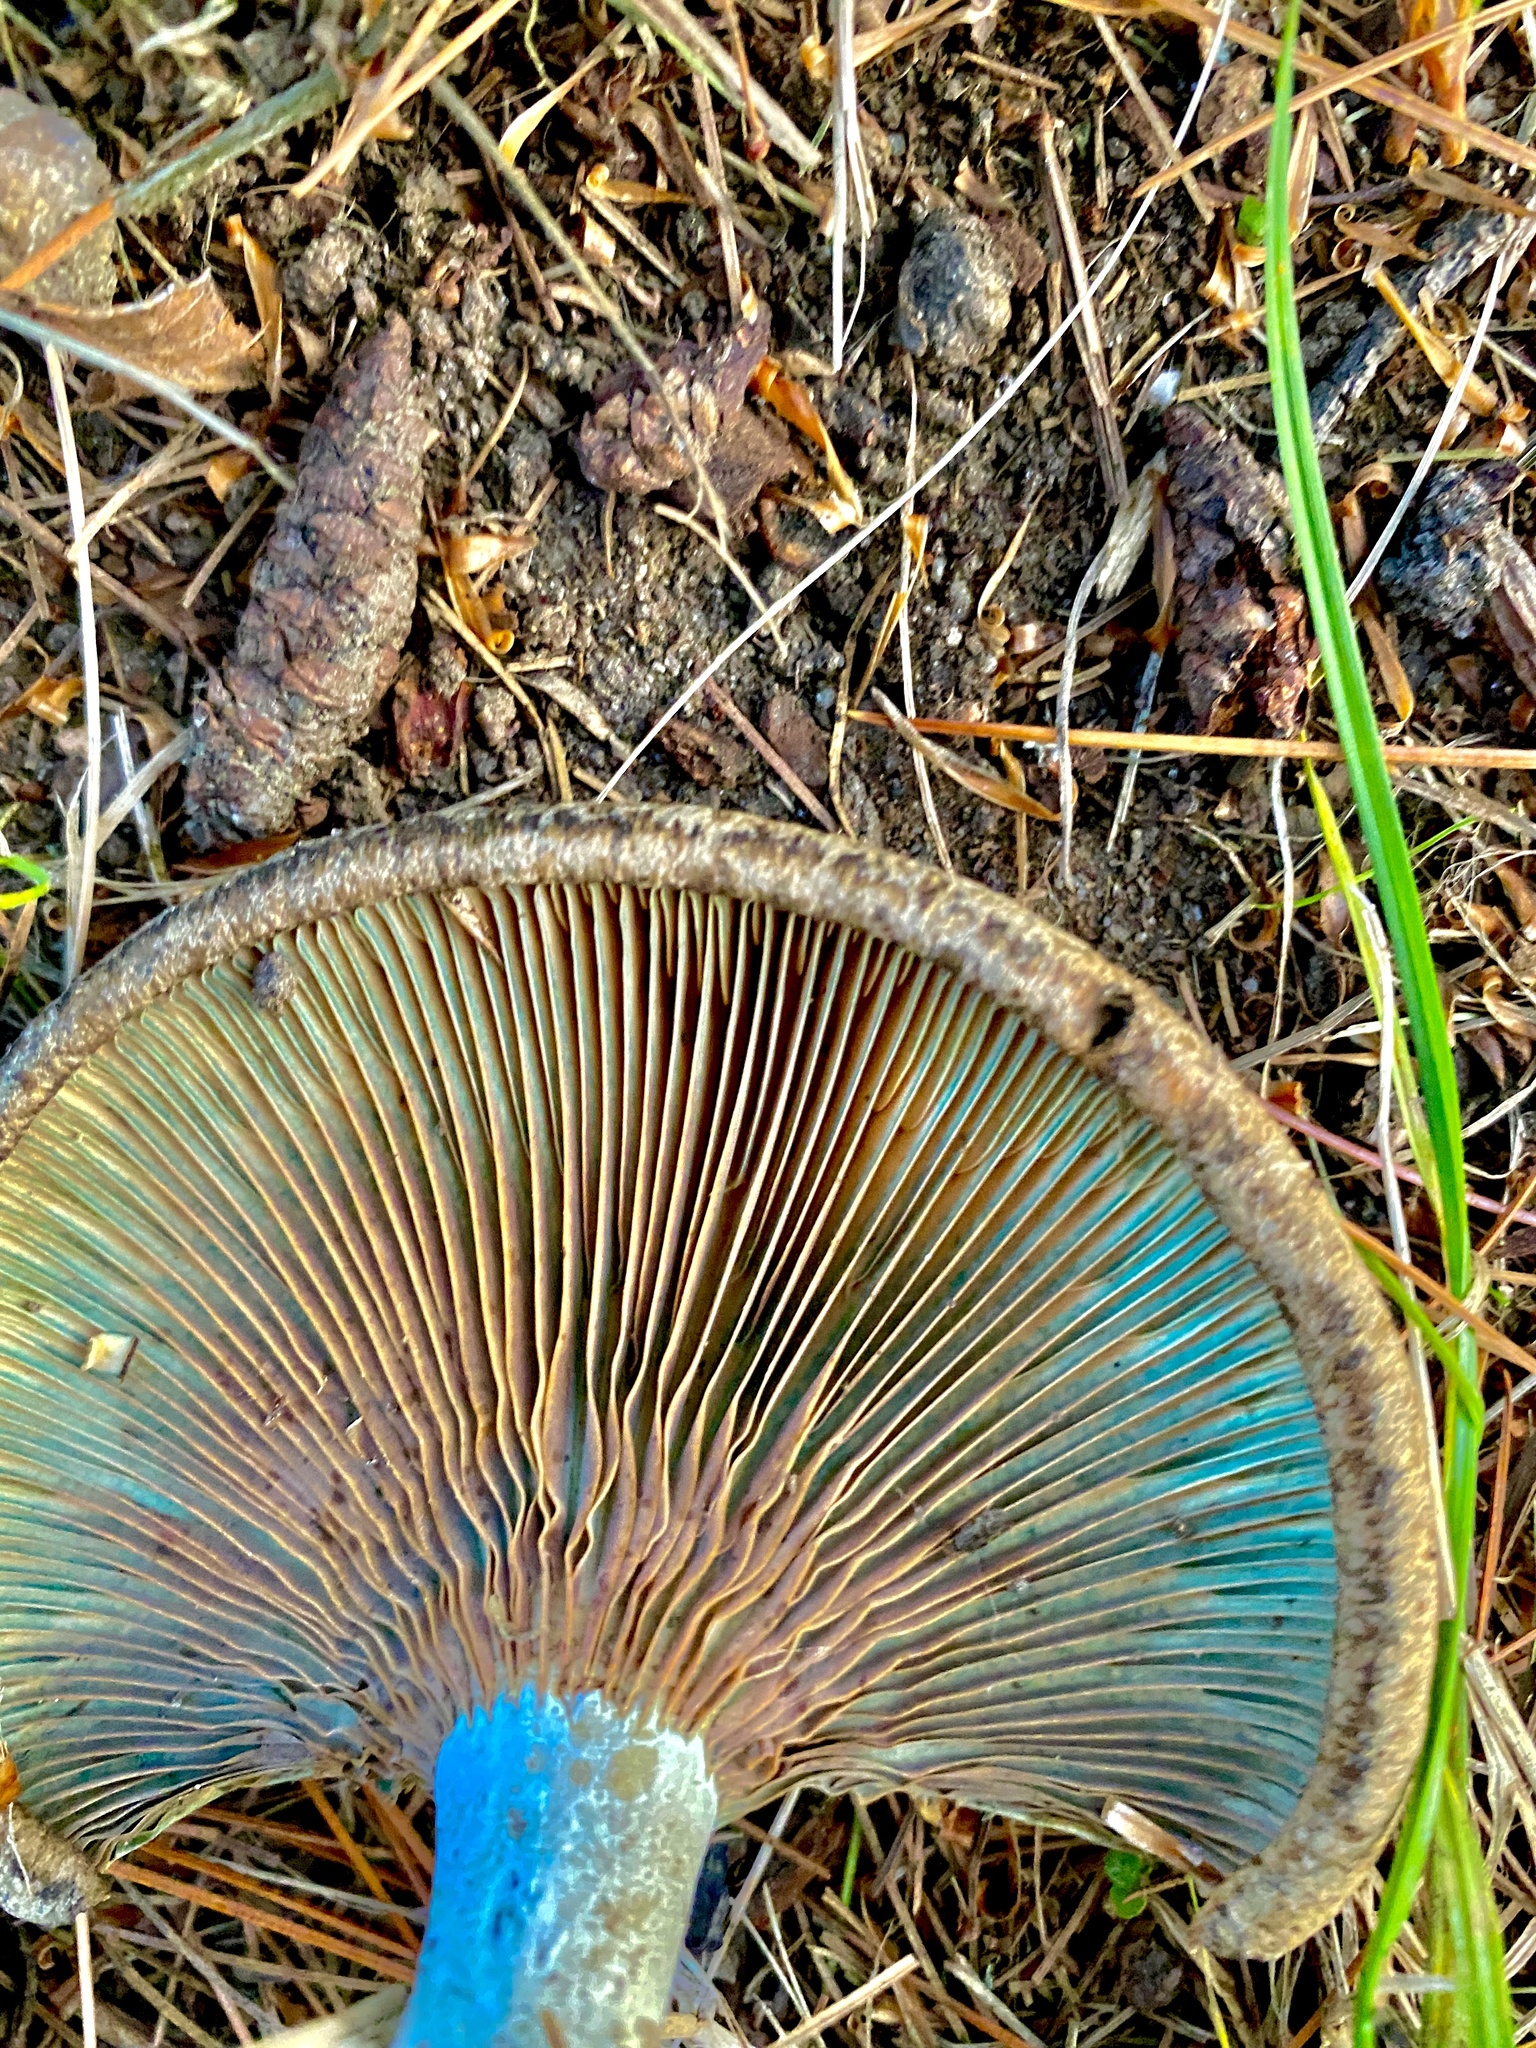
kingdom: Fungi
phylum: Basidiomycota
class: Agaricomycetes
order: Russulales
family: Russulaceae
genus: Lactarius
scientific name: Lactarius deliciosus
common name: Saffron milk-cap
